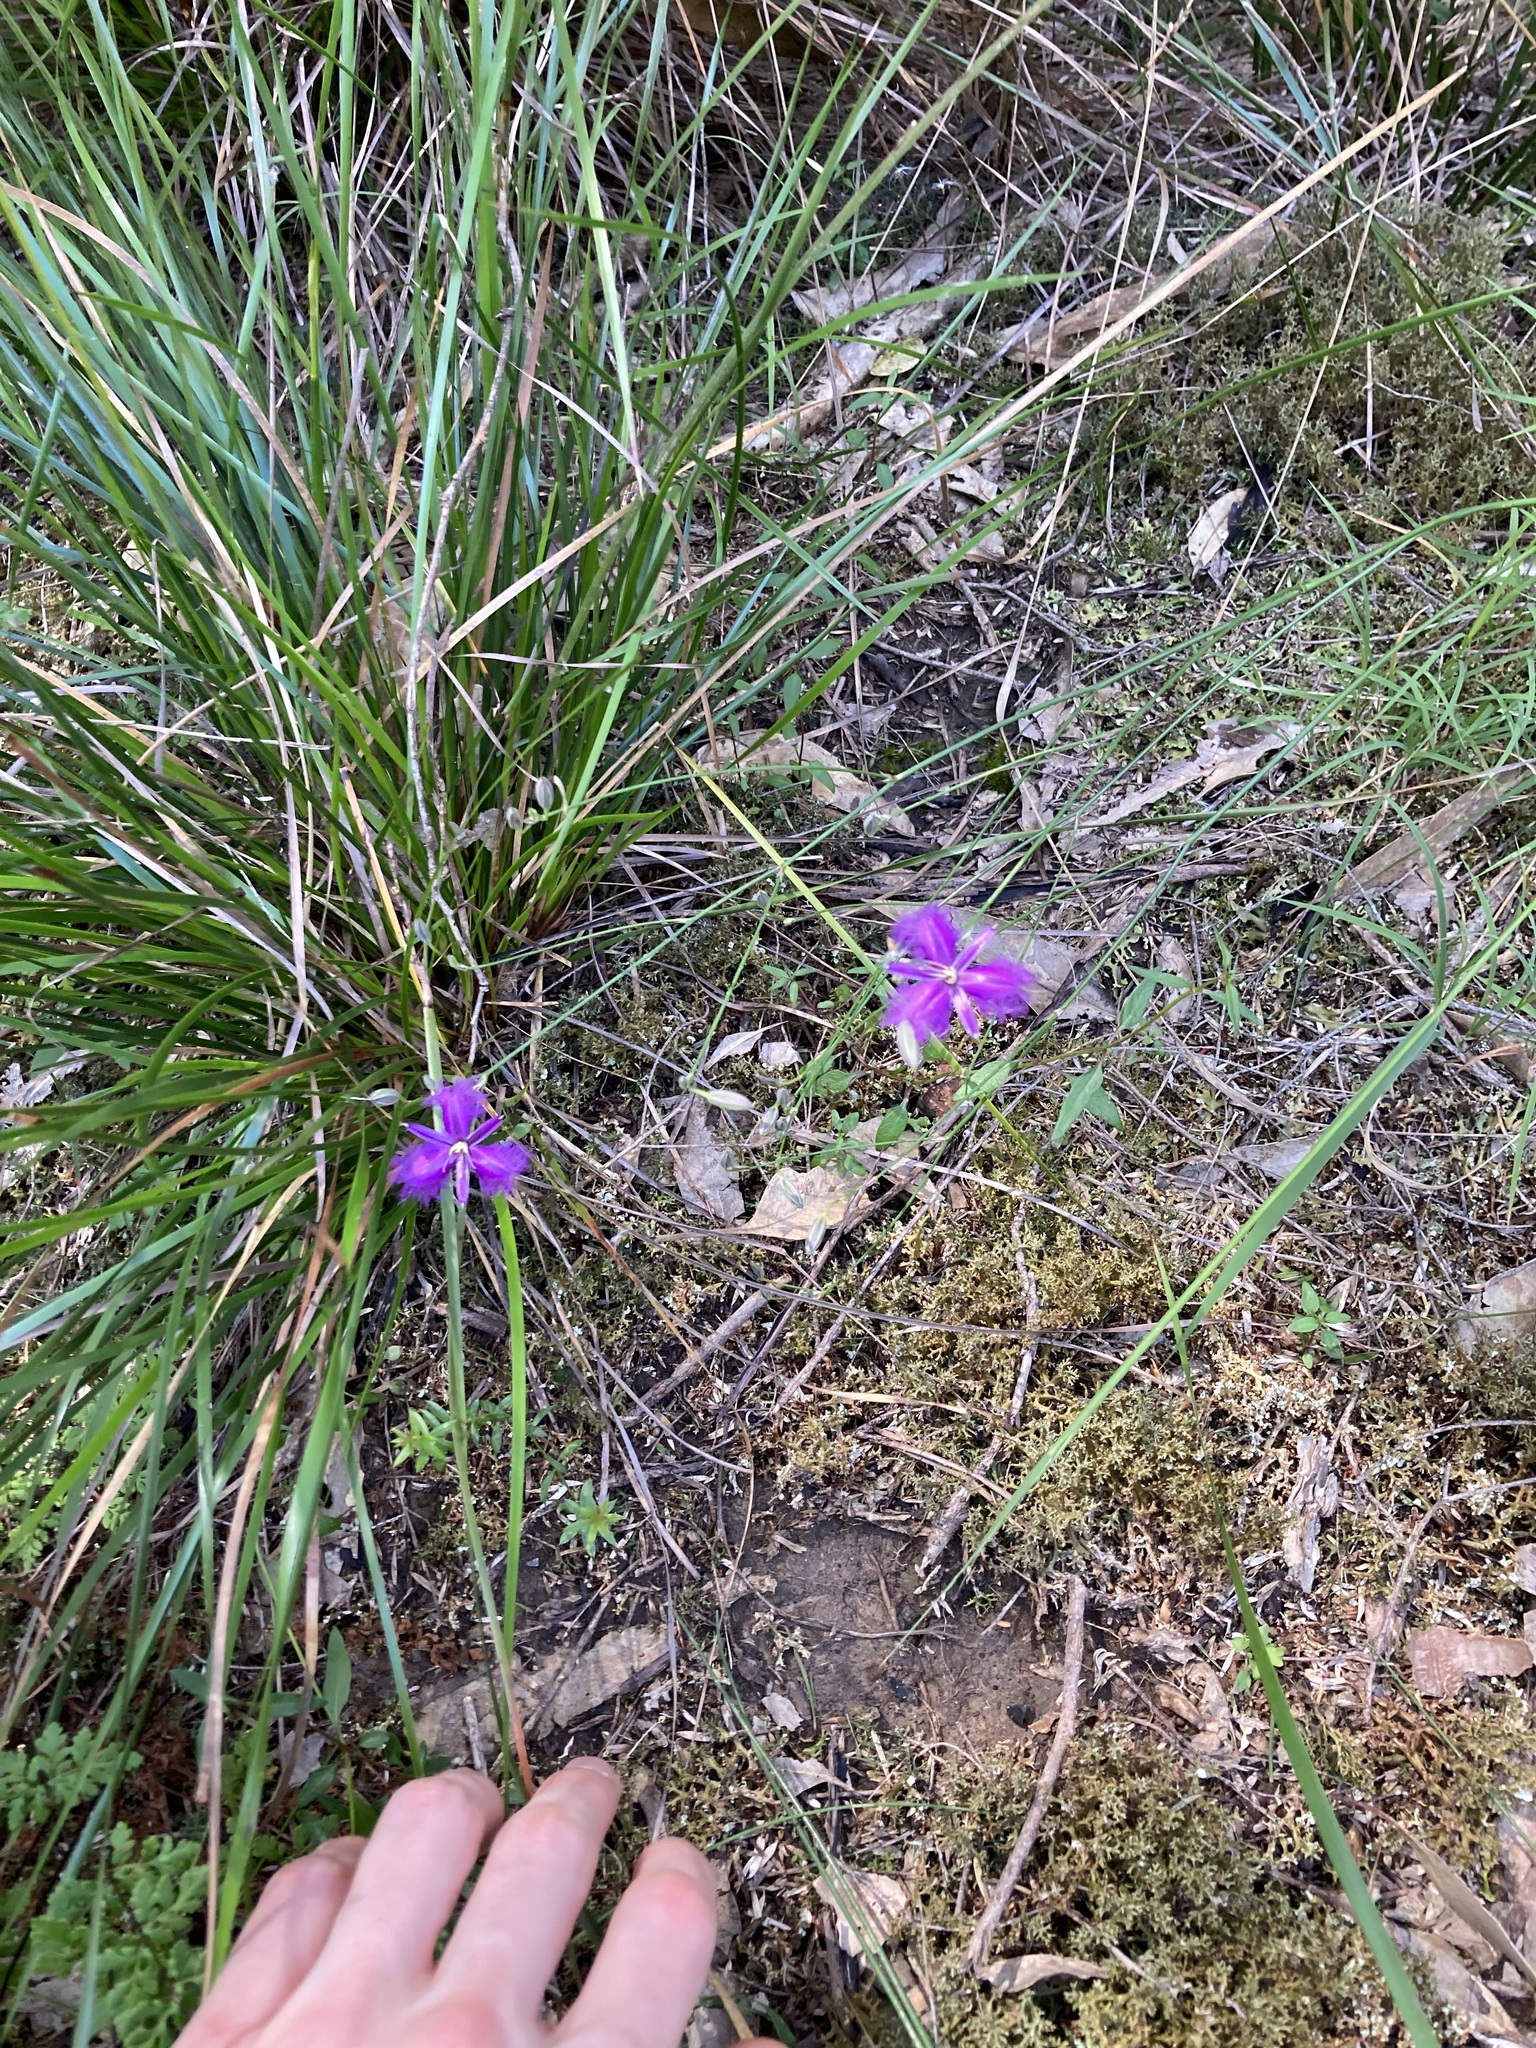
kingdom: Plantae
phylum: Tracheophyta
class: Liliopsida
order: Asparagales
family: Asparagaceae
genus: Thysanotus
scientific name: Thysanotus tuberosus
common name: Common fringed-lily
